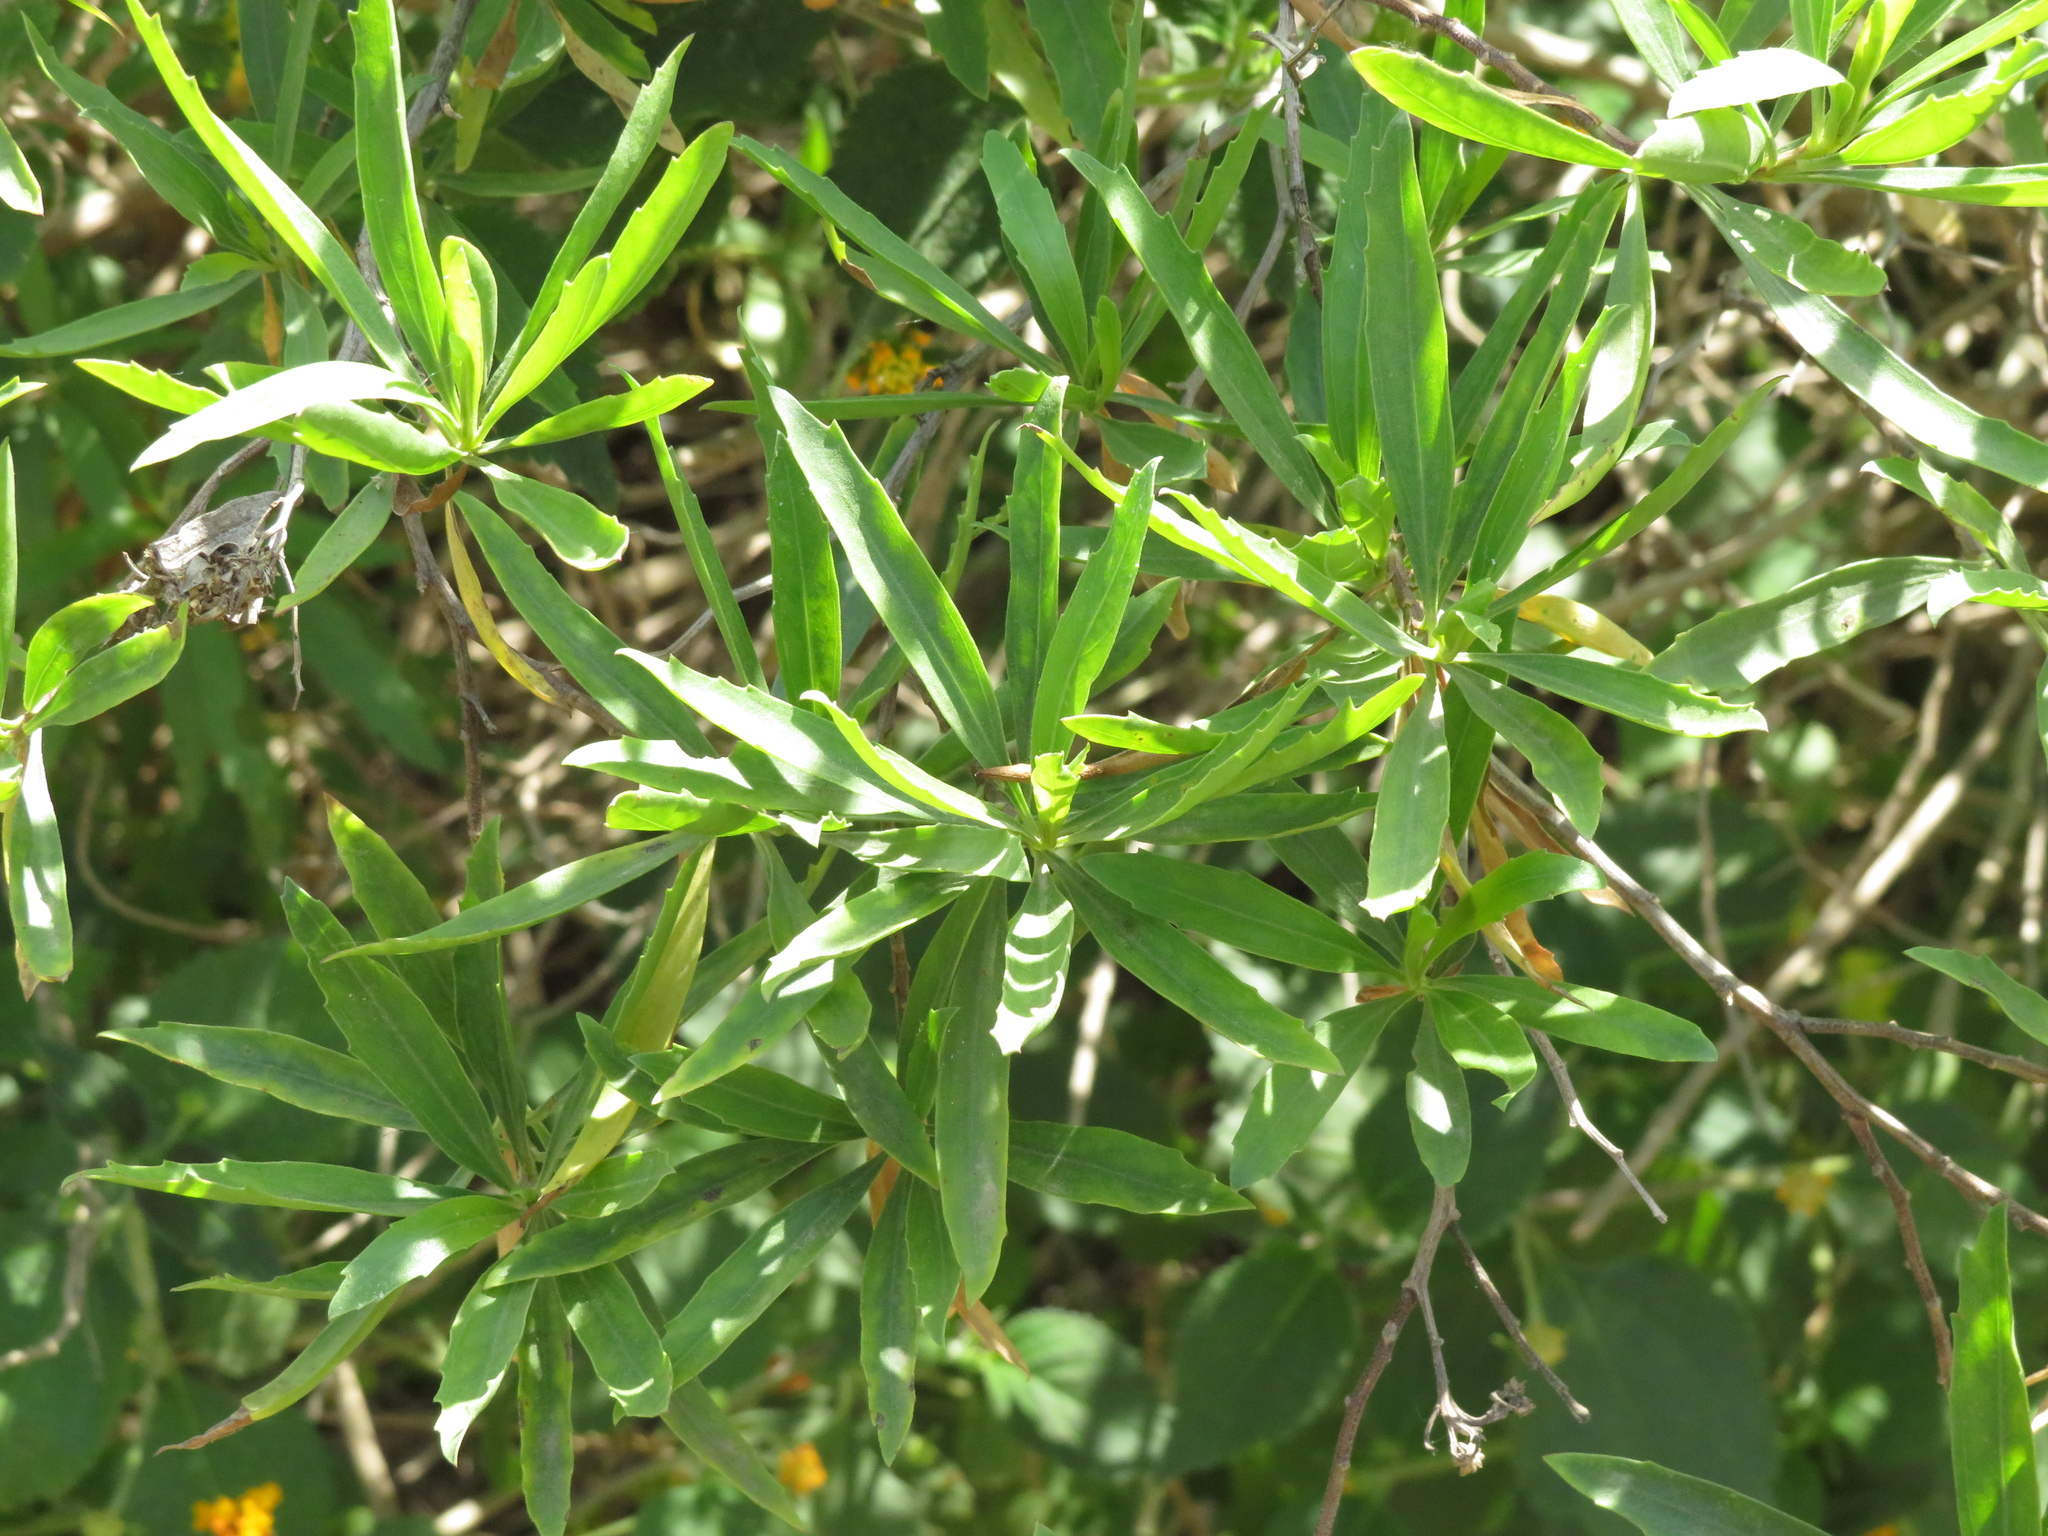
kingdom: Plantae
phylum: Tracheophyta
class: Magnoliopsida
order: Asterales
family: Asteraceae
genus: Baccharis
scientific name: Baccharis salicifolia
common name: Sticky baccharis
